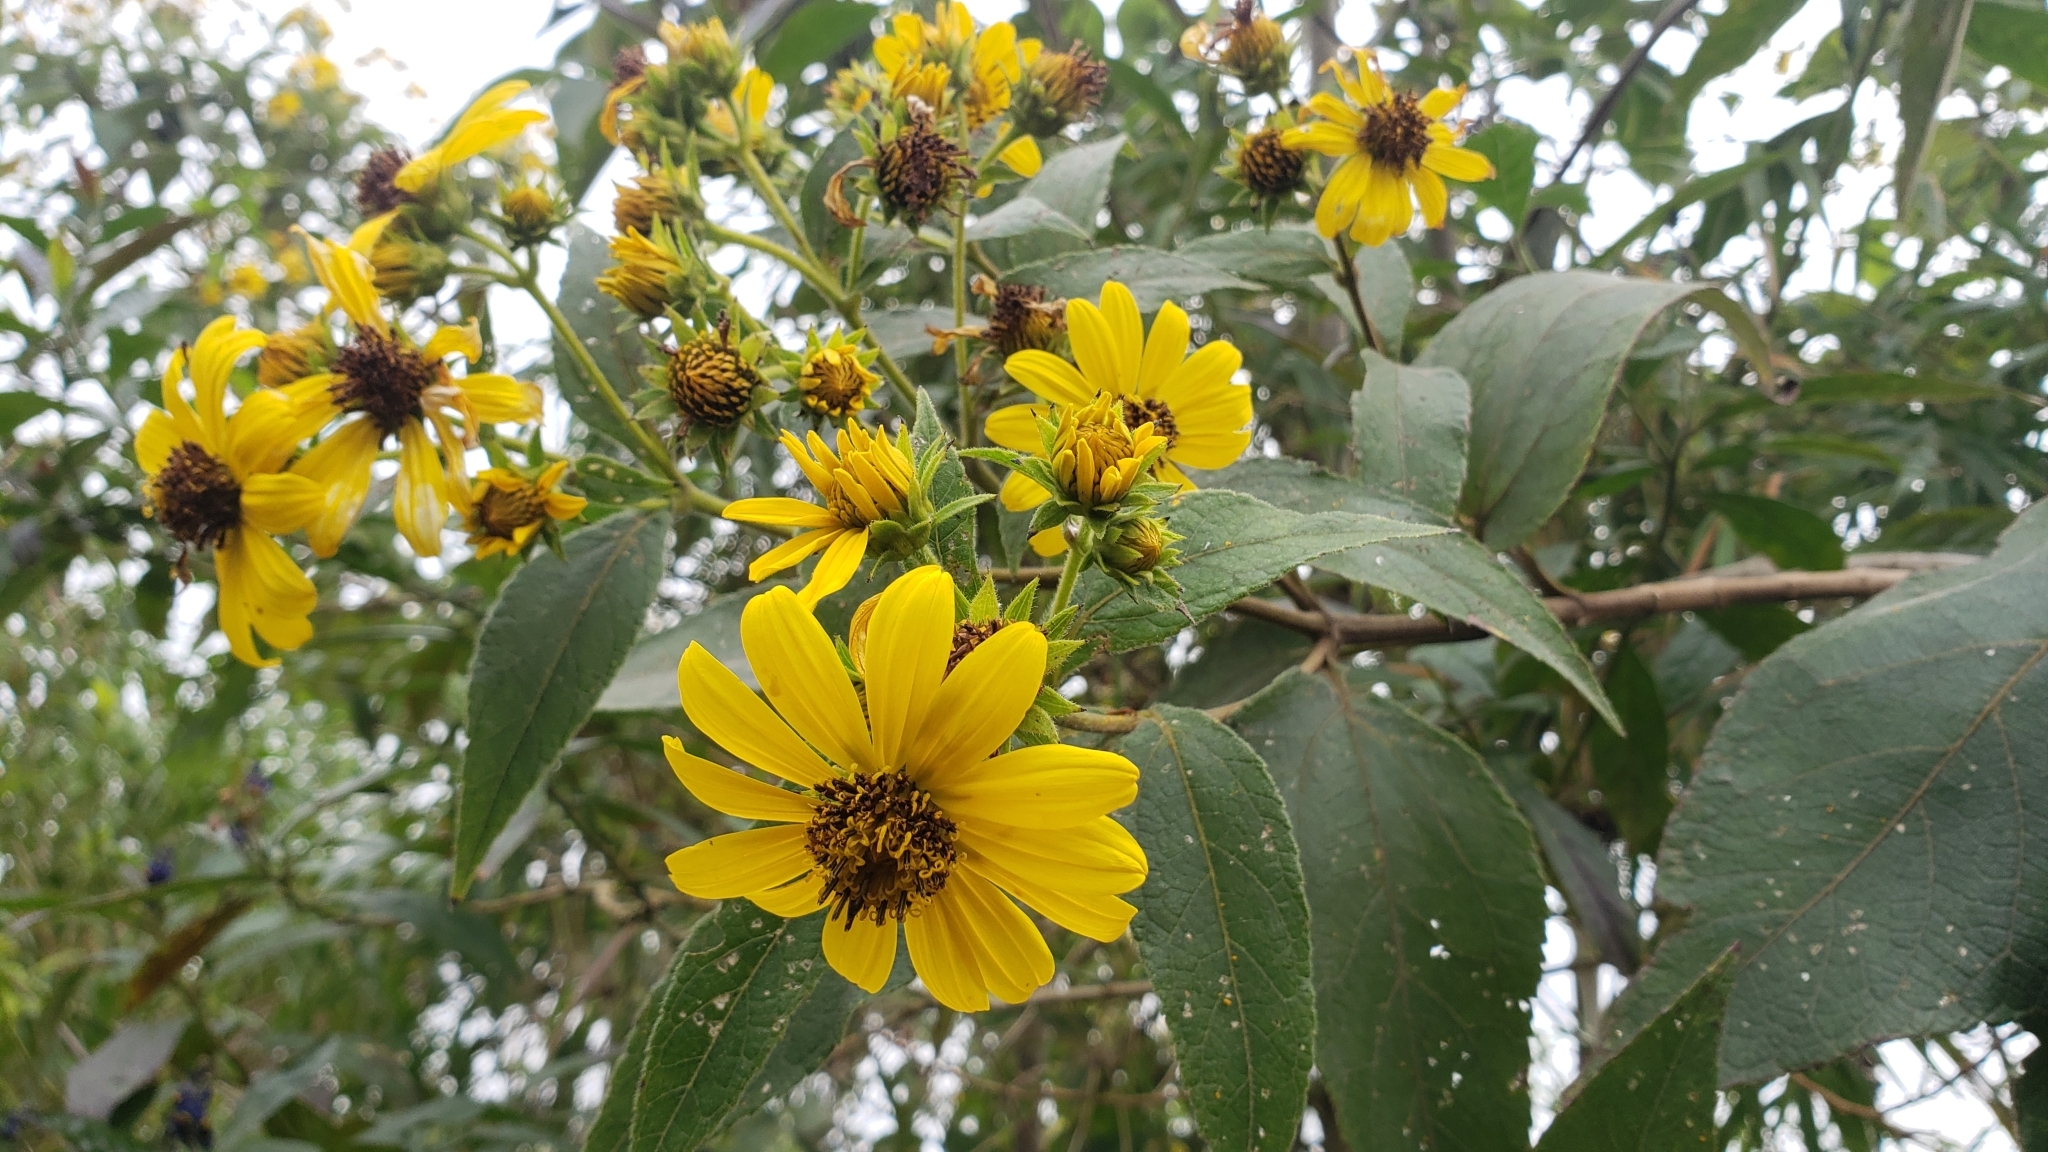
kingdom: Plantae
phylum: Tracheophyta
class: Magnoliopsida
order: Asterales
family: Asteraceae
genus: Oyedaea
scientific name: Oyedaea verbesinoides
